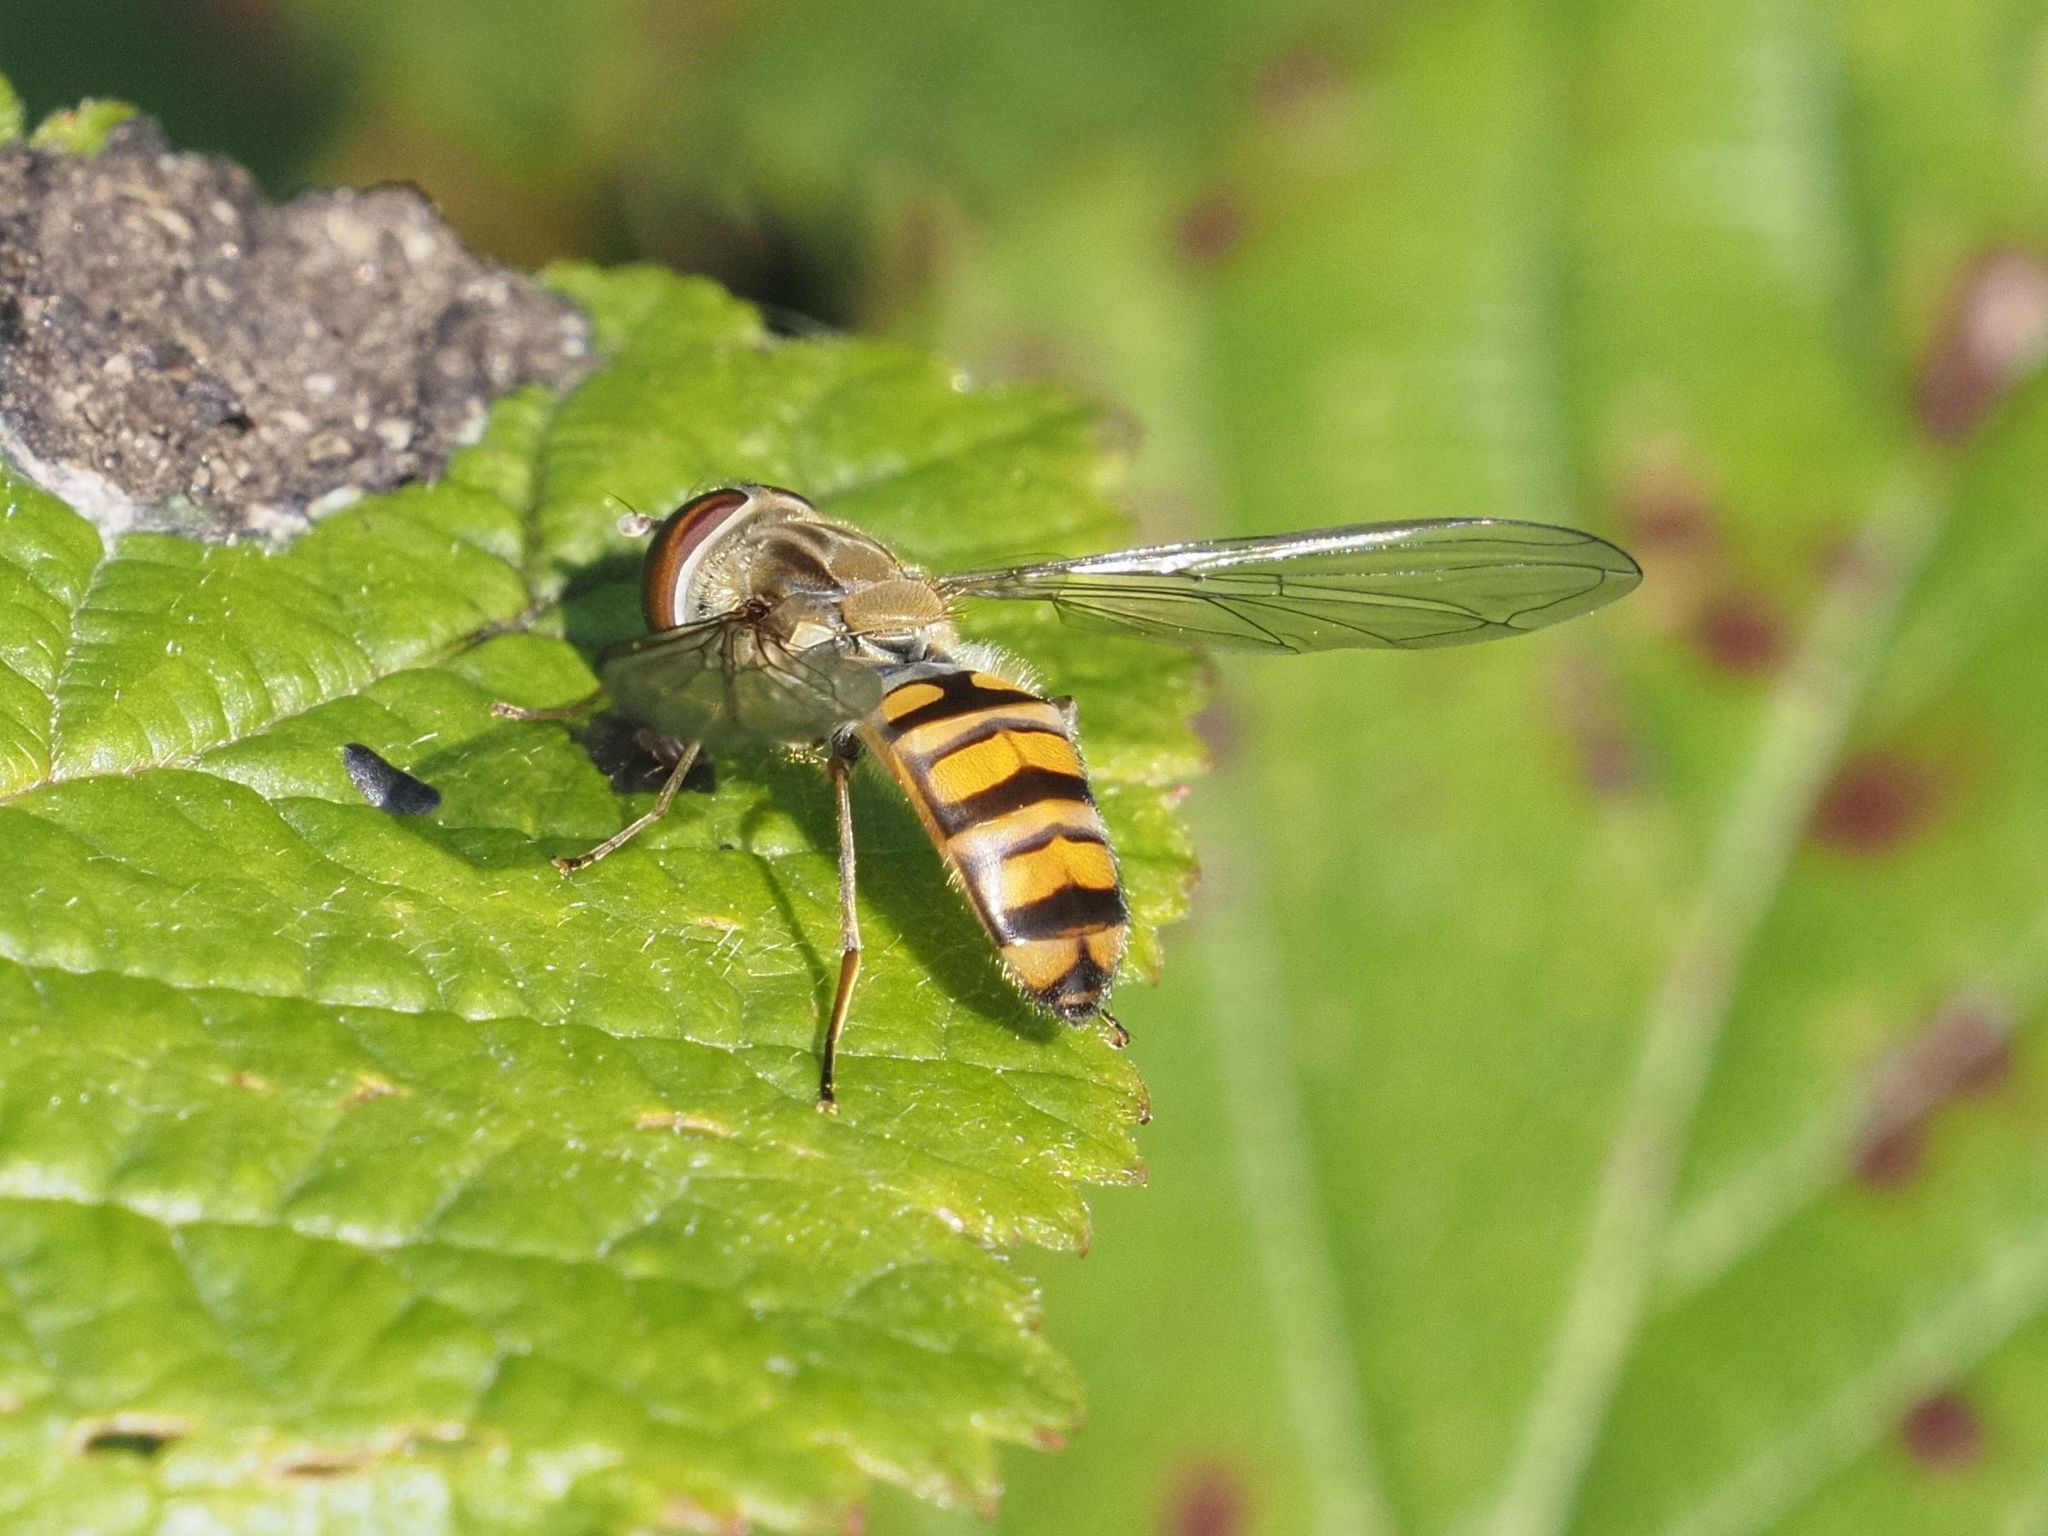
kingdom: Animalia
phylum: Arthropoda
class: Insecta
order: Diptera
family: Syrphidae
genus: Episyrphus
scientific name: Episyrphus balteatus
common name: Marmalade hoverfly
